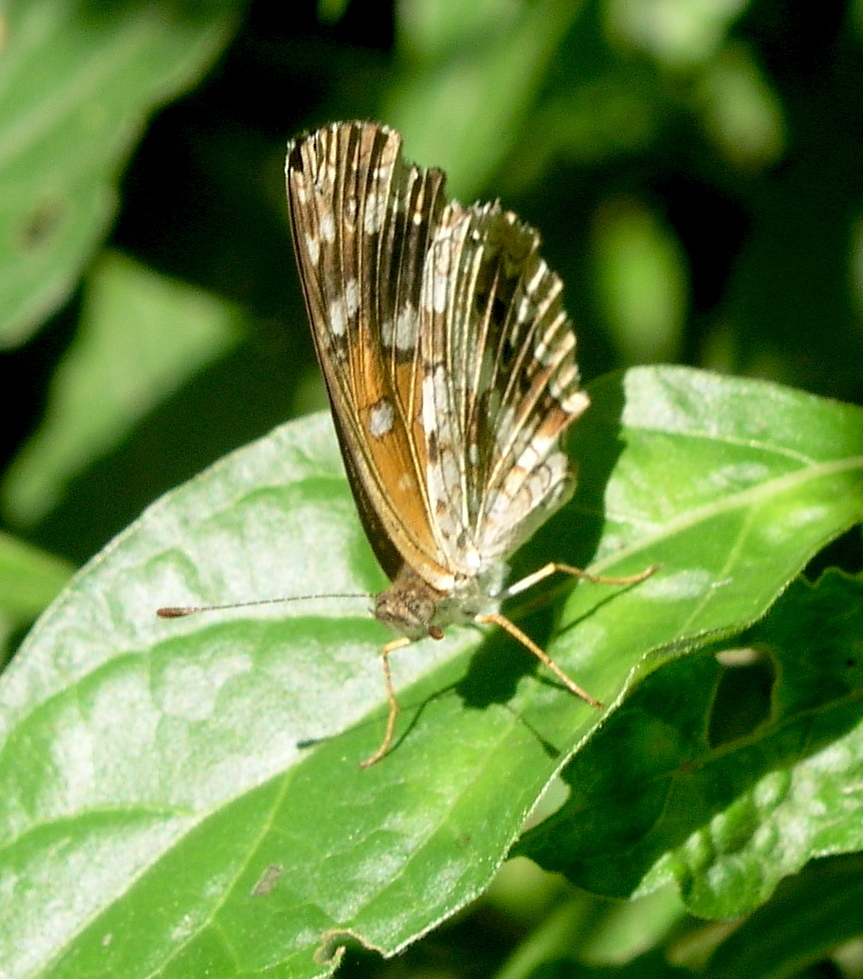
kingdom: Animalia
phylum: Arthropoda
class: Insecta
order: Lepidoptera
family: Nymphalidae
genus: Ortilia
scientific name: Ortilia ithra
